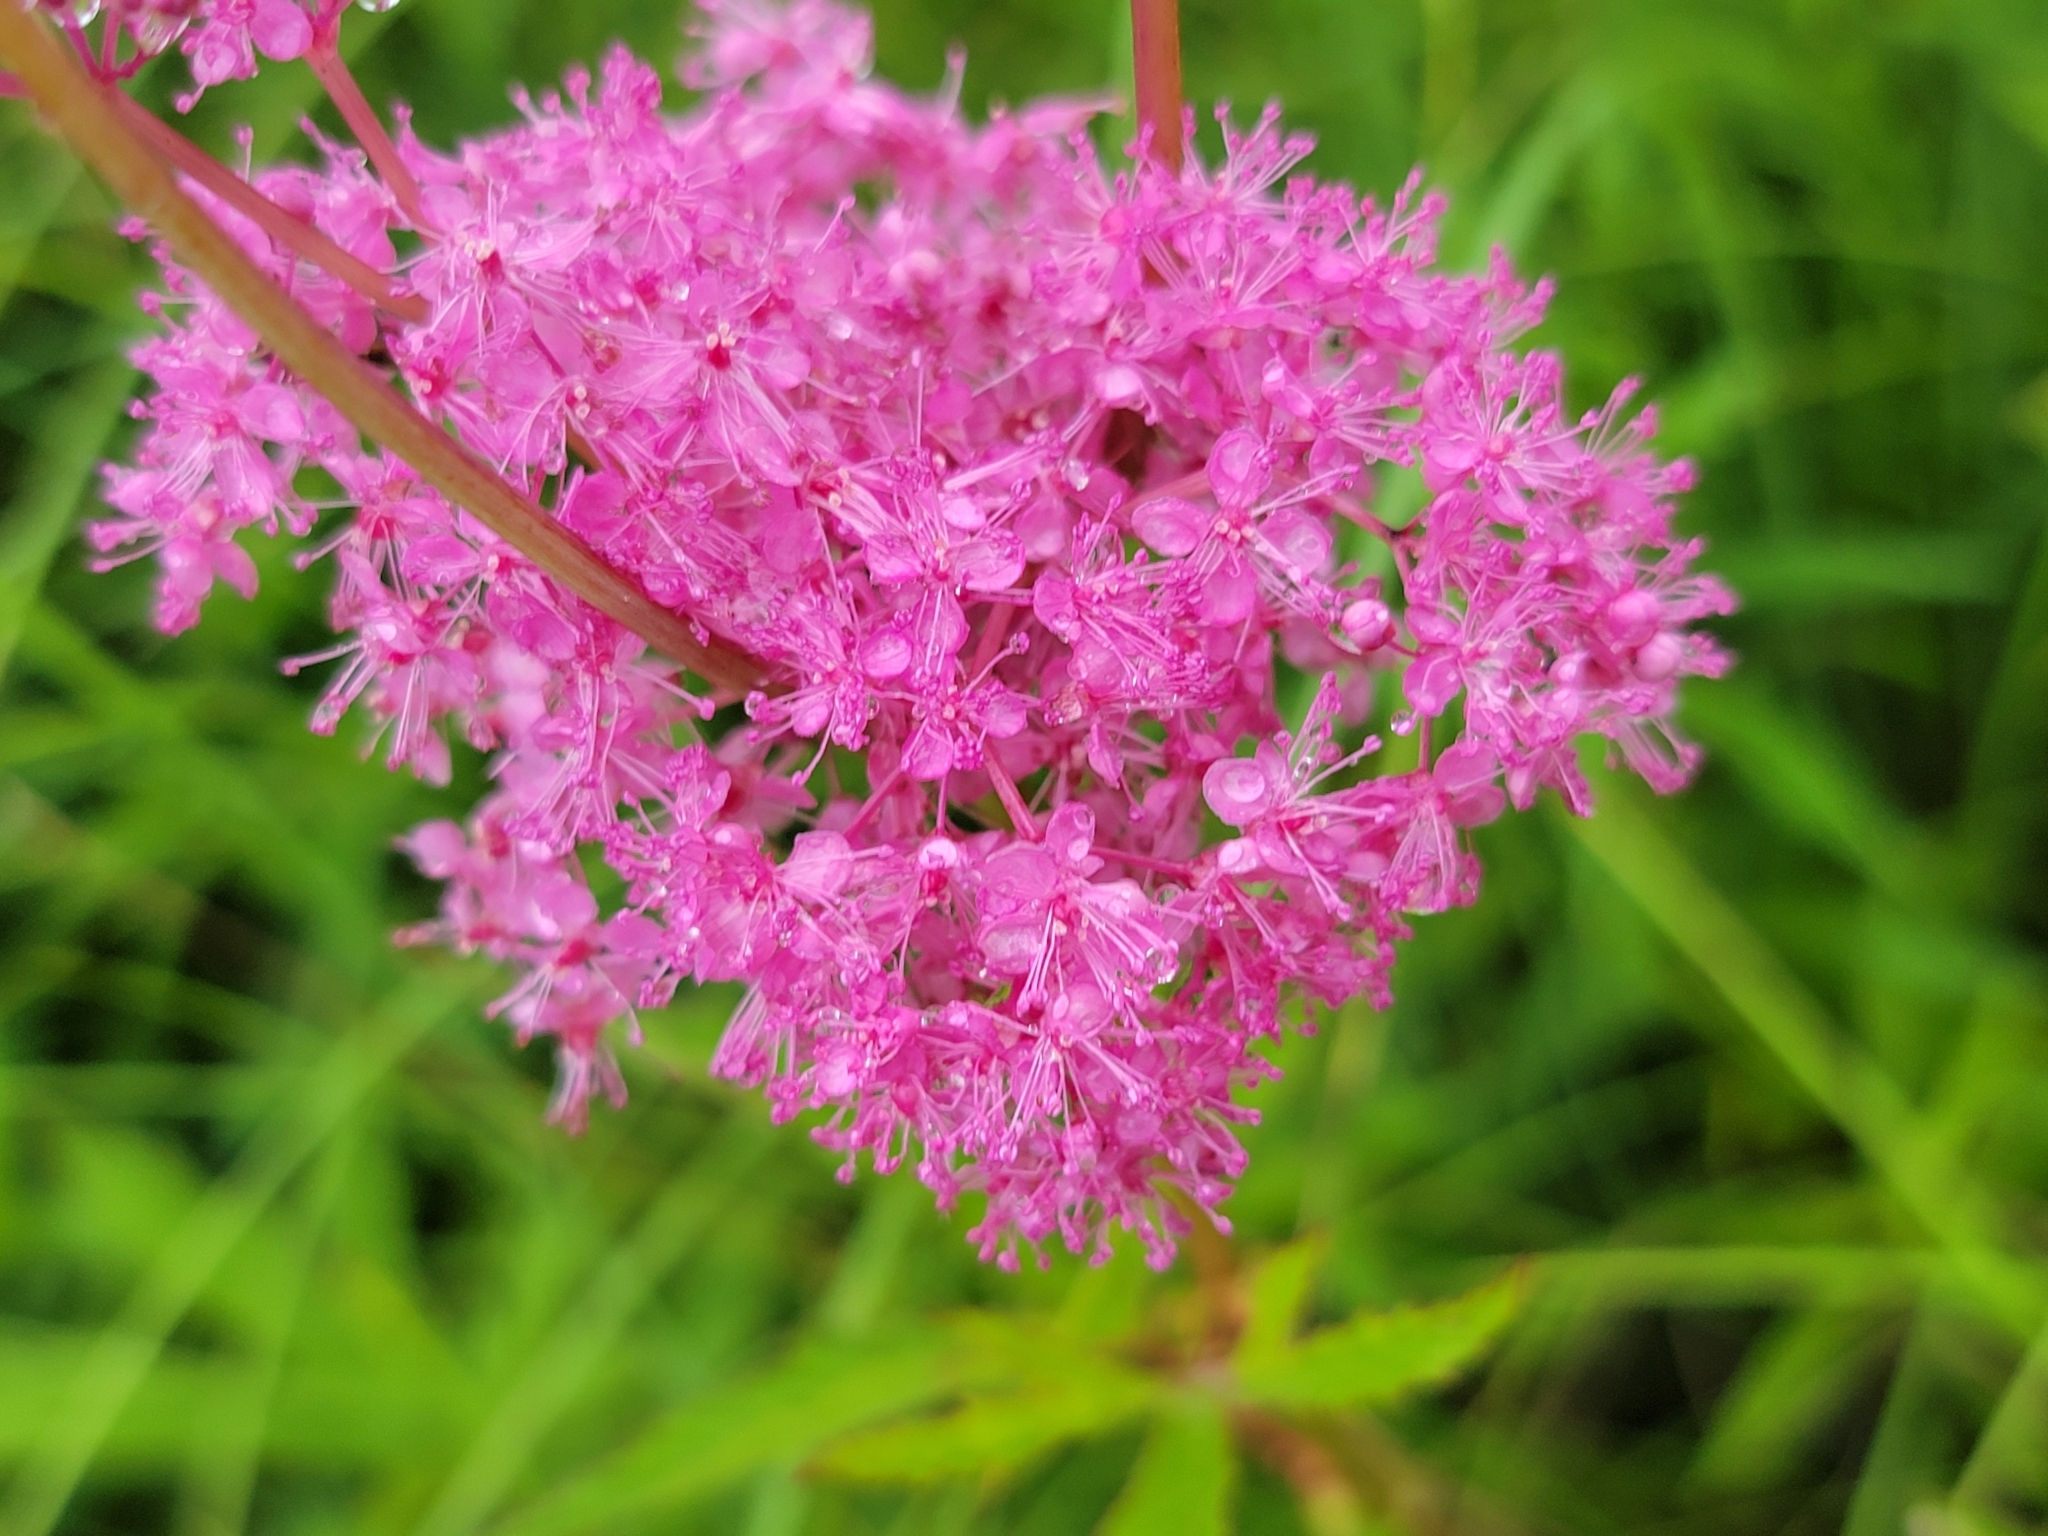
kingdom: Plantae
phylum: Tracheophyta
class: Magnoliopsida
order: Rosales
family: Rosaceae
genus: Filipendula
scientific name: Filipendula rubra
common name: Queen-of-the-prairie
